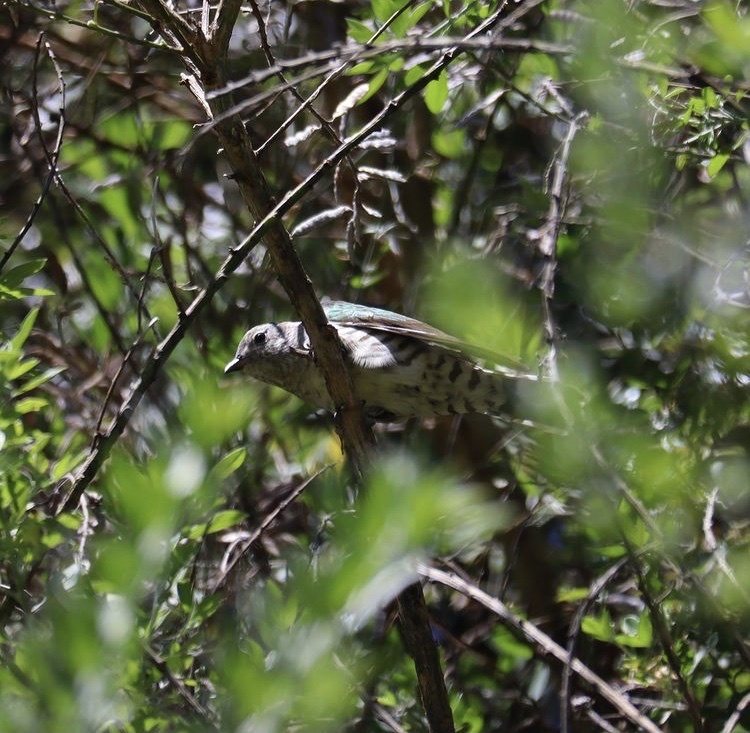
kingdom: Animalia
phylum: Chordata
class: Aves
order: Cuculiformes
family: Cuculidae
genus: Chrysococcyx
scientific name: Chrysococcyx lucidus
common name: Shining bronze cuckoo
